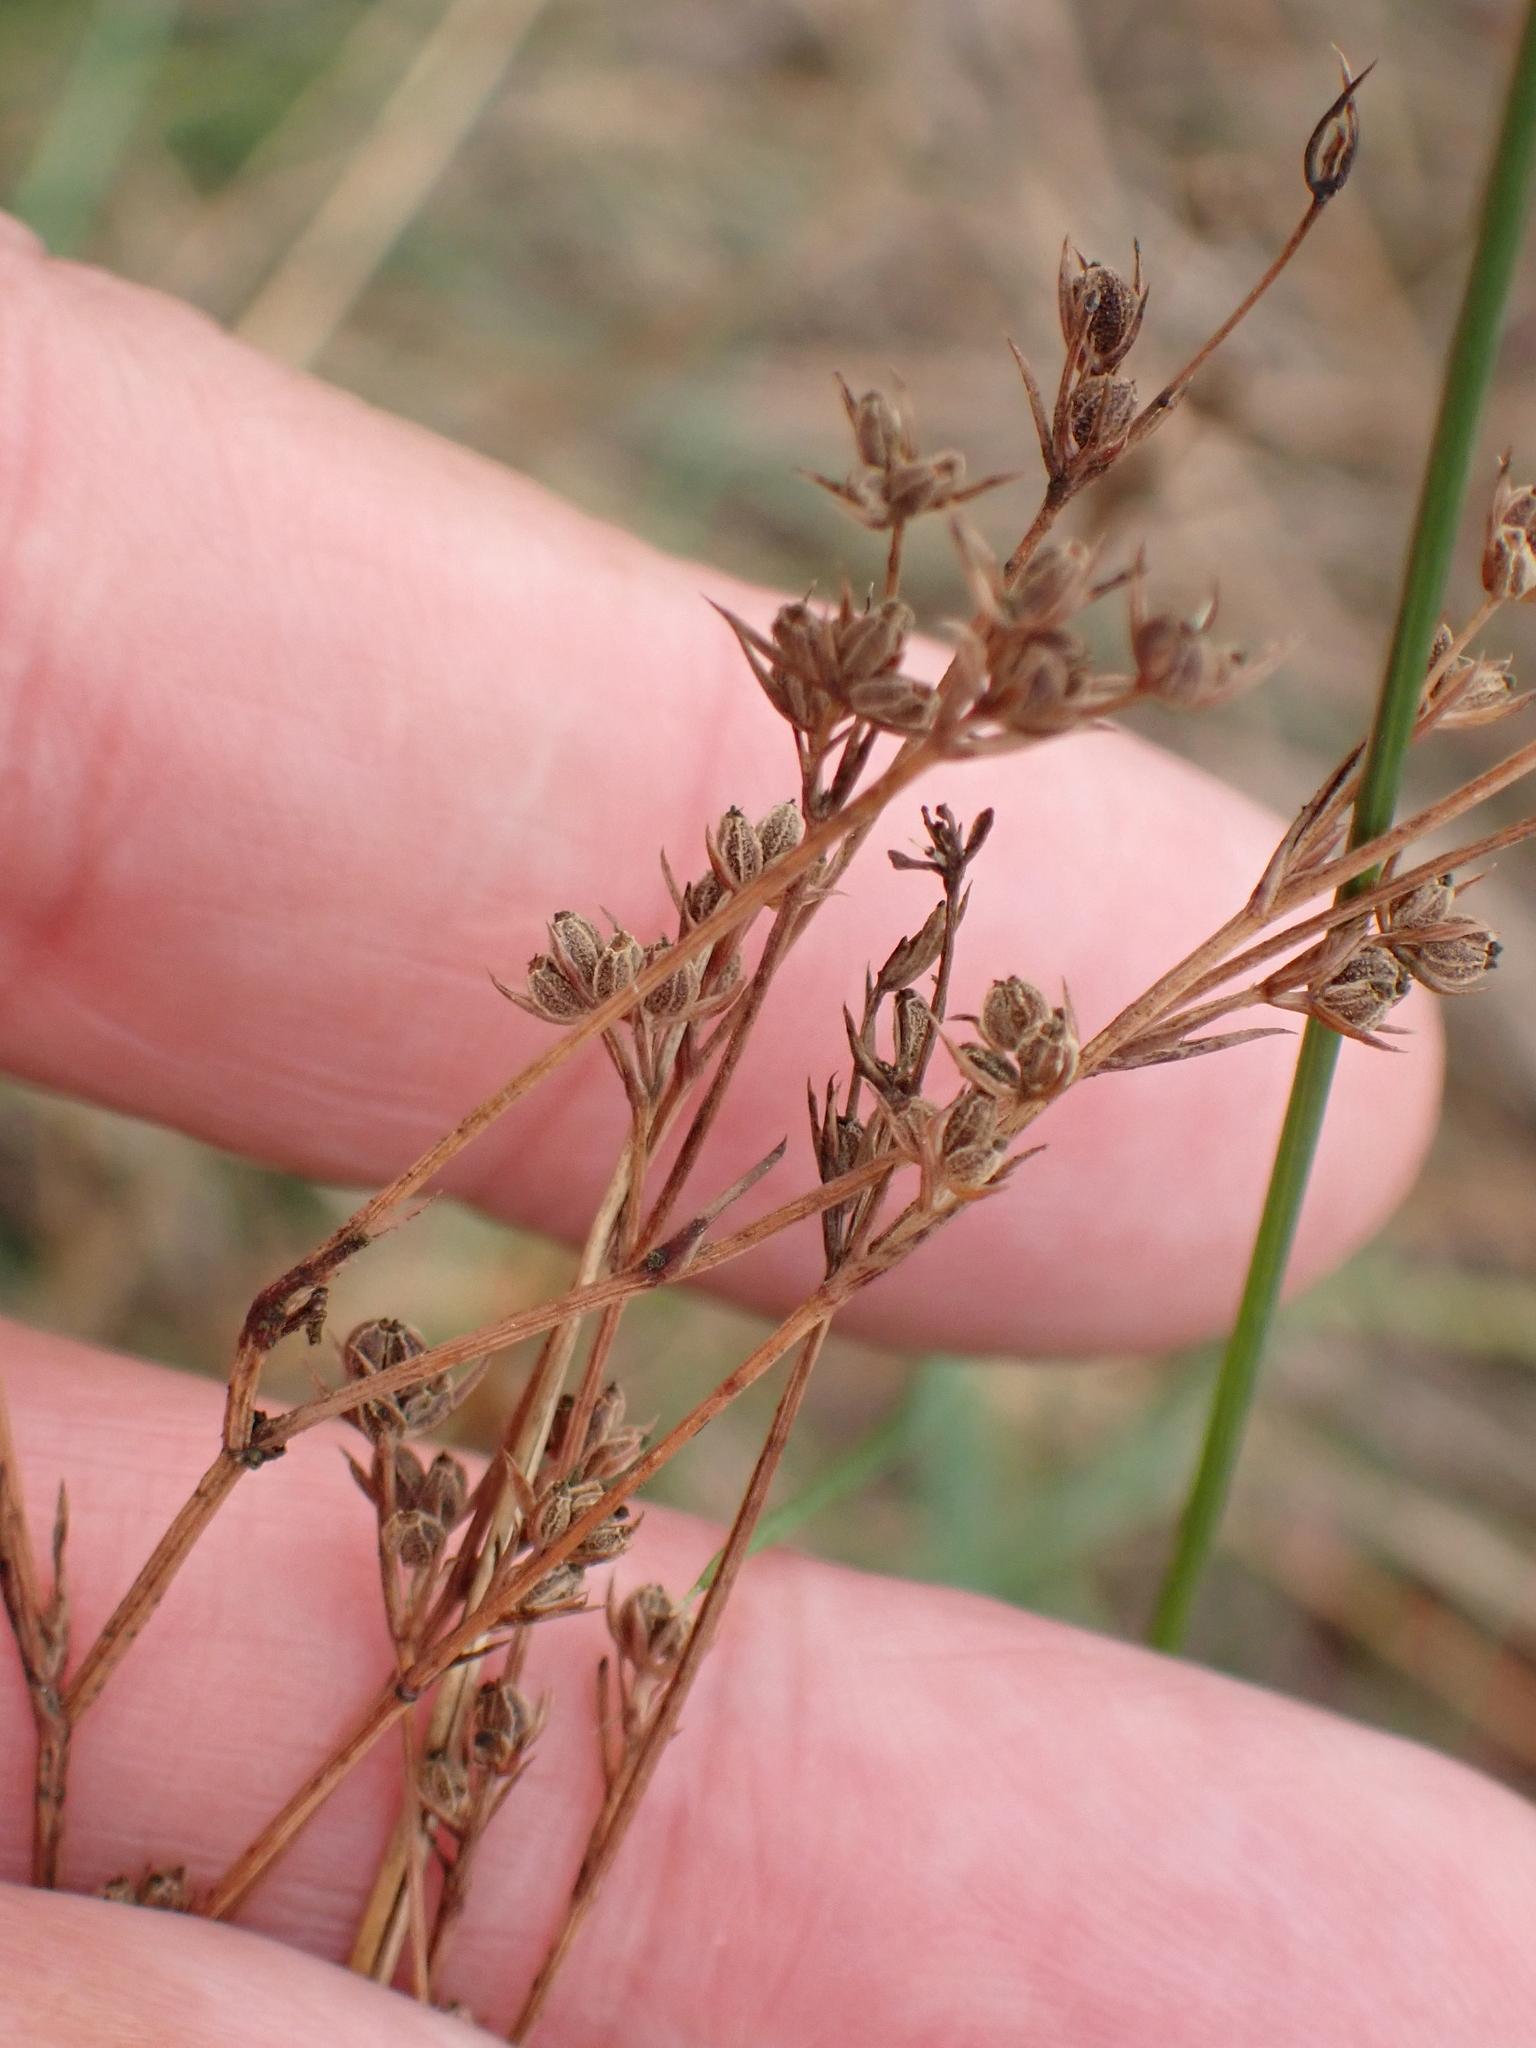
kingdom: Plantae
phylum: Tracheophyta
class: Magnoliopsida
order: Apiales
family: Apiaceae
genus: Bupleurum
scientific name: Bupleurum tenuissimum
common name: Slender hare's-ear
